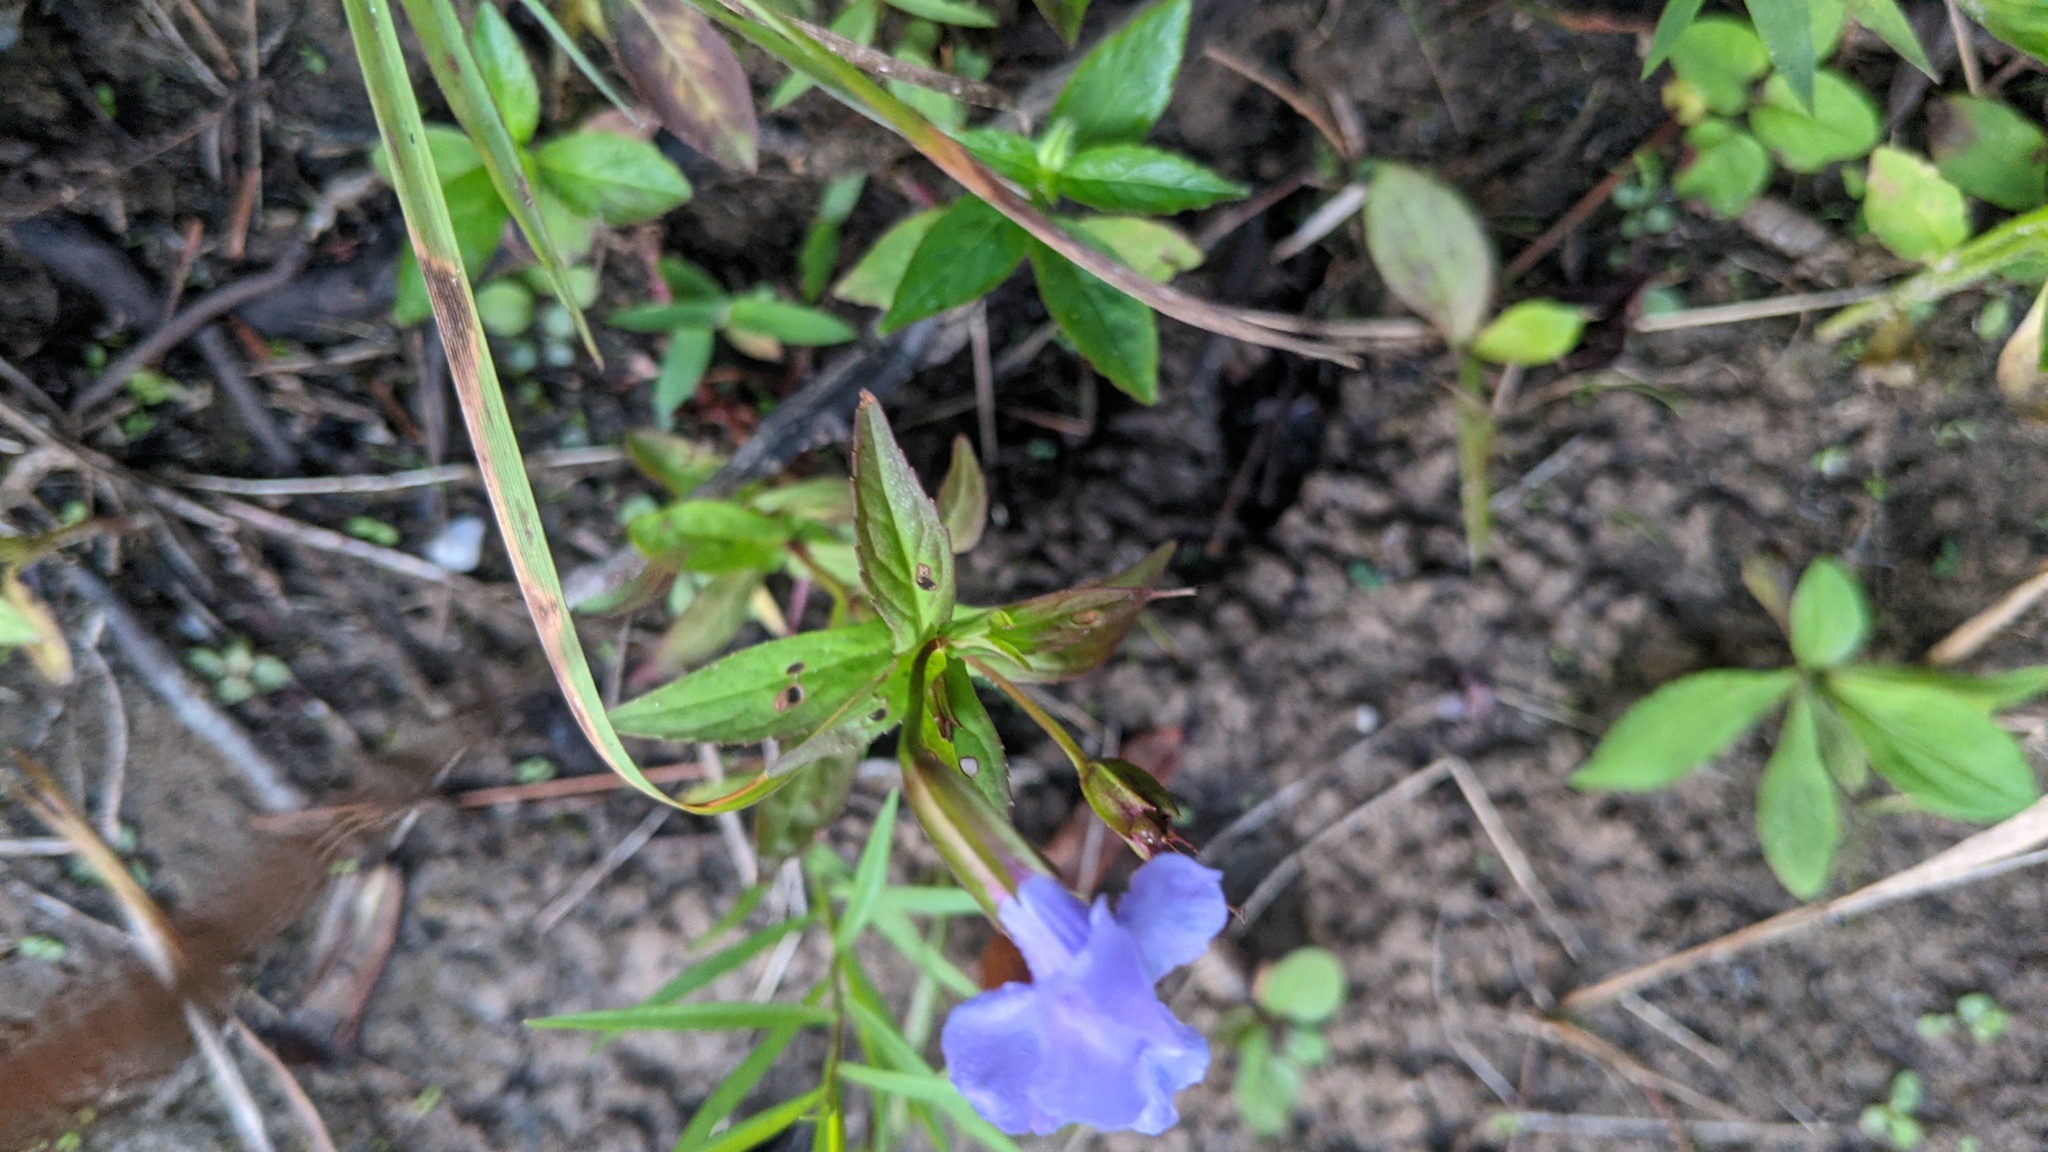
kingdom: Plantae
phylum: Tracheophyta
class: Magnoliopsida
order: Lamiales
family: Phrymaceae
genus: Mimulus
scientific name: Mimulus ringens
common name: Allegheny monkeyflower
